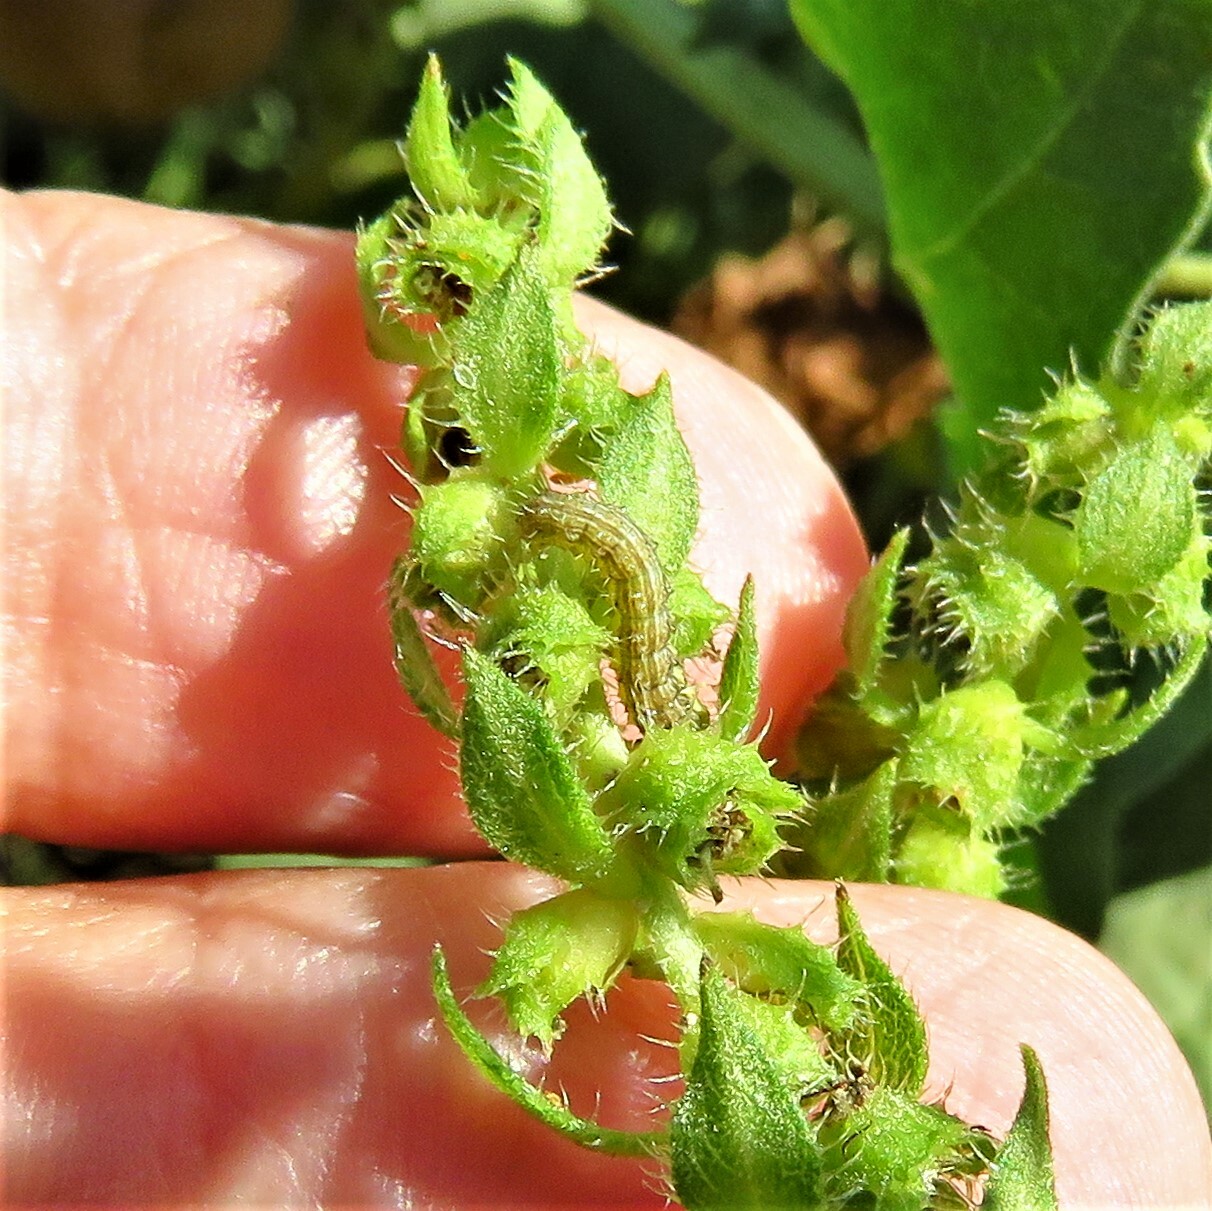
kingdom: Animalia
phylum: Arthropoda
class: Insecta
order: Lepidoptera
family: Noctuidae
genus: Schinia
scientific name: Schinia gracilenta
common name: Slender flower moth
